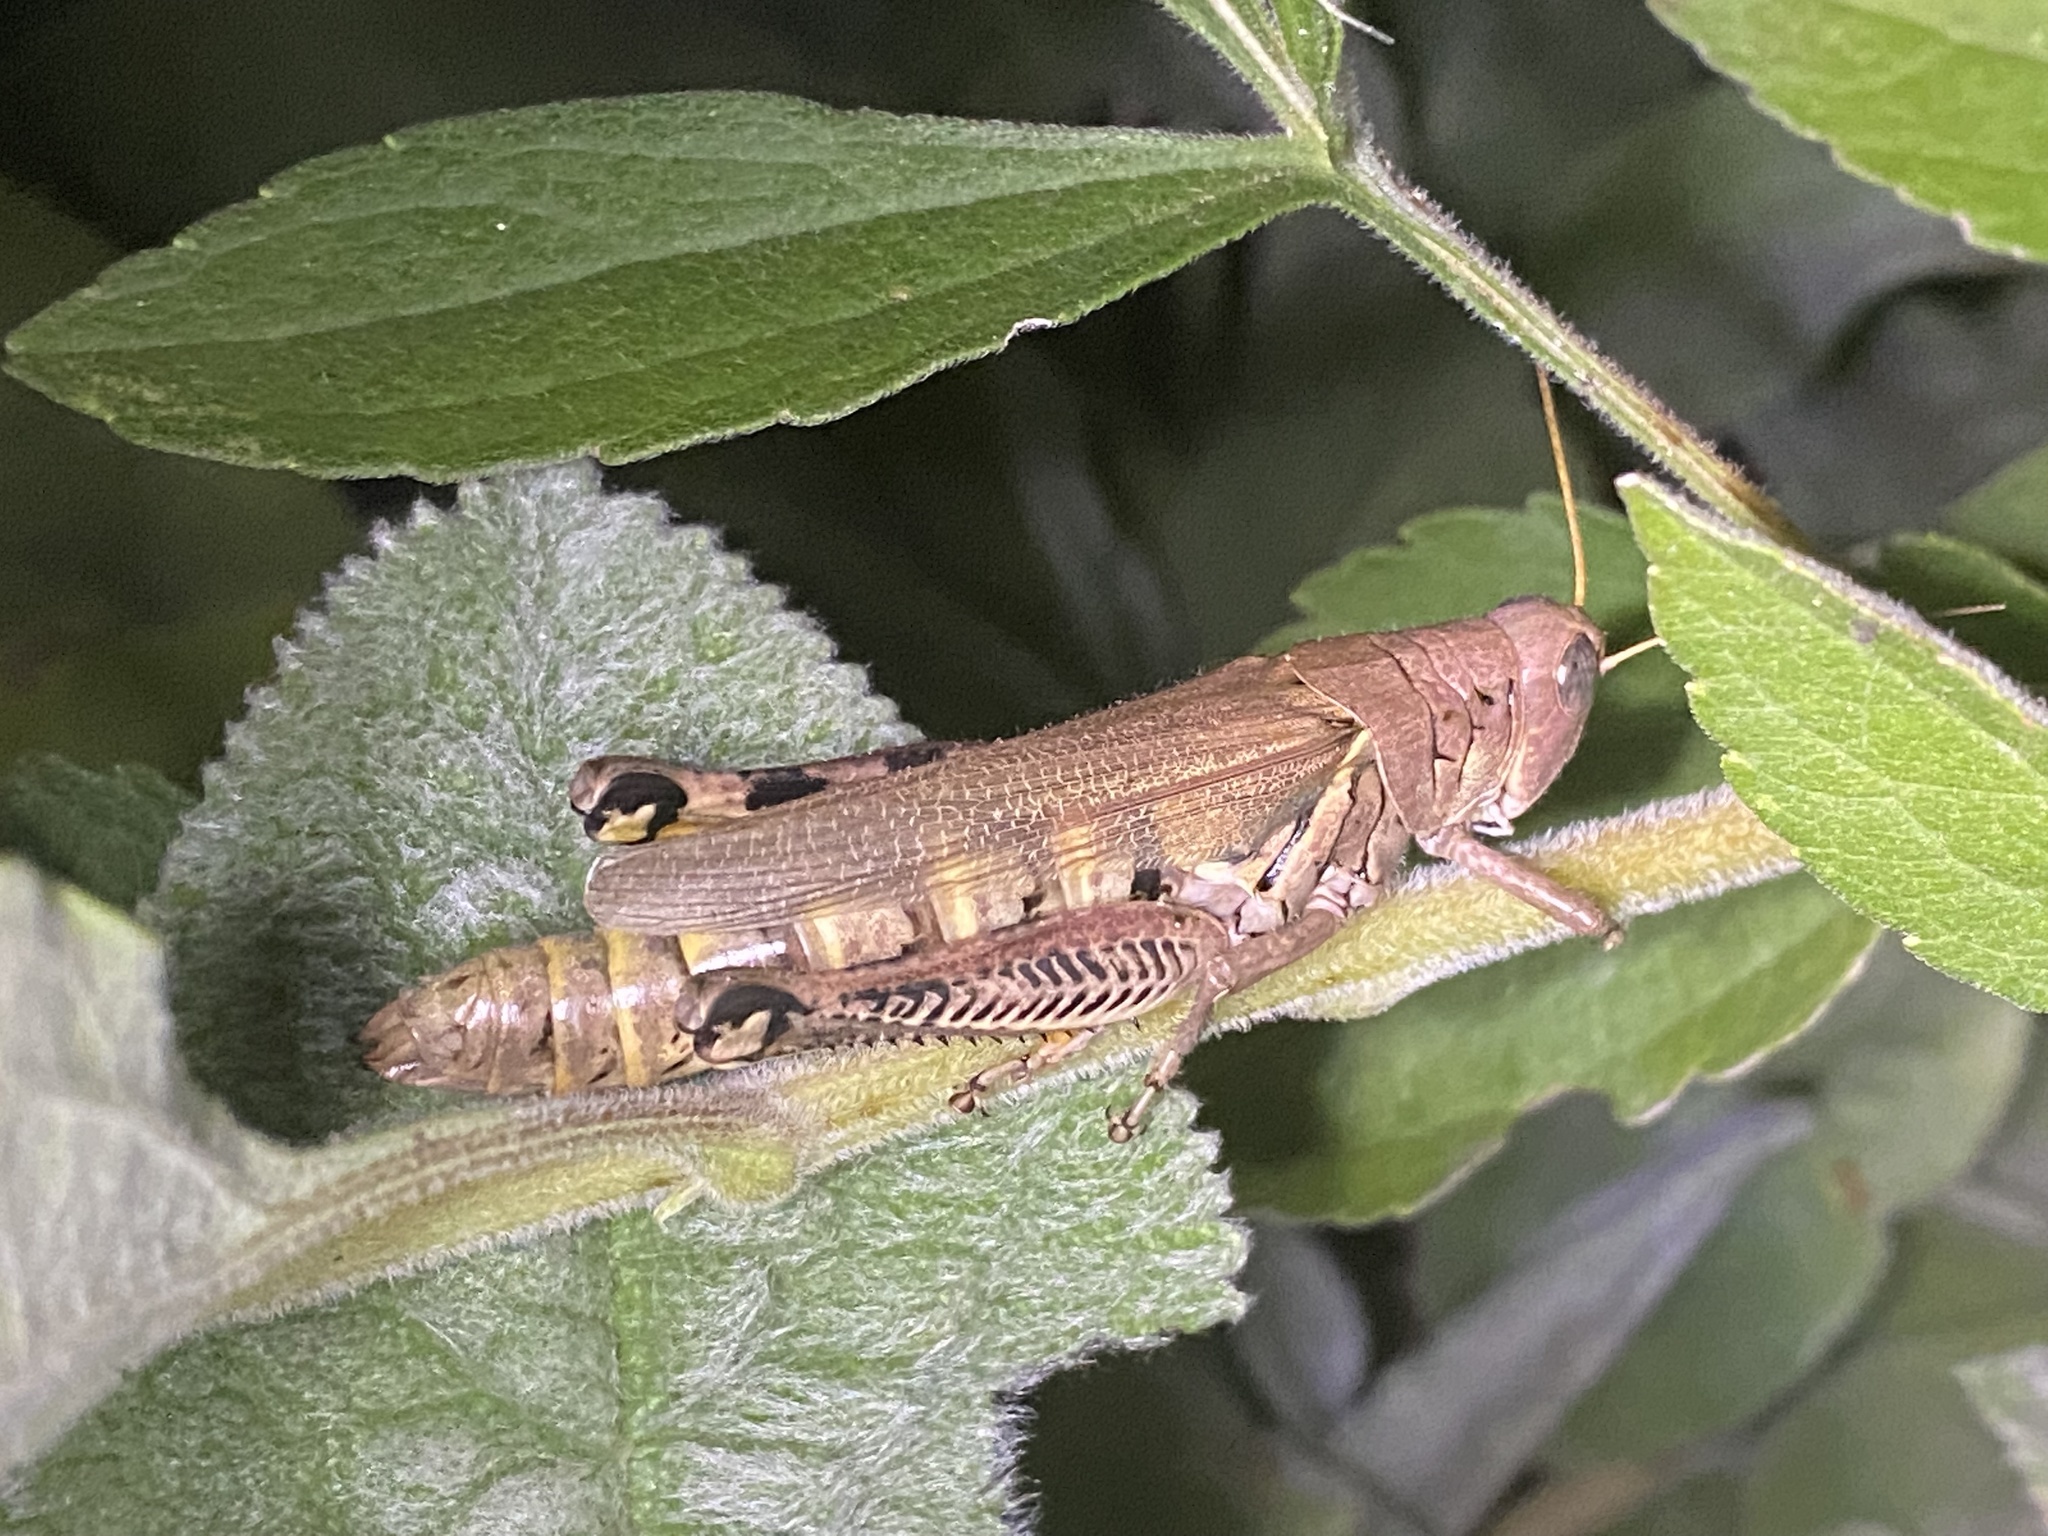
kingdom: Animalia
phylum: Arthropoda
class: Insecta
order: Orthoptera
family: Acrididae
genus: Melanoplus
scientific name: Melanoplus differentialis
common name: Differential grasshopper
